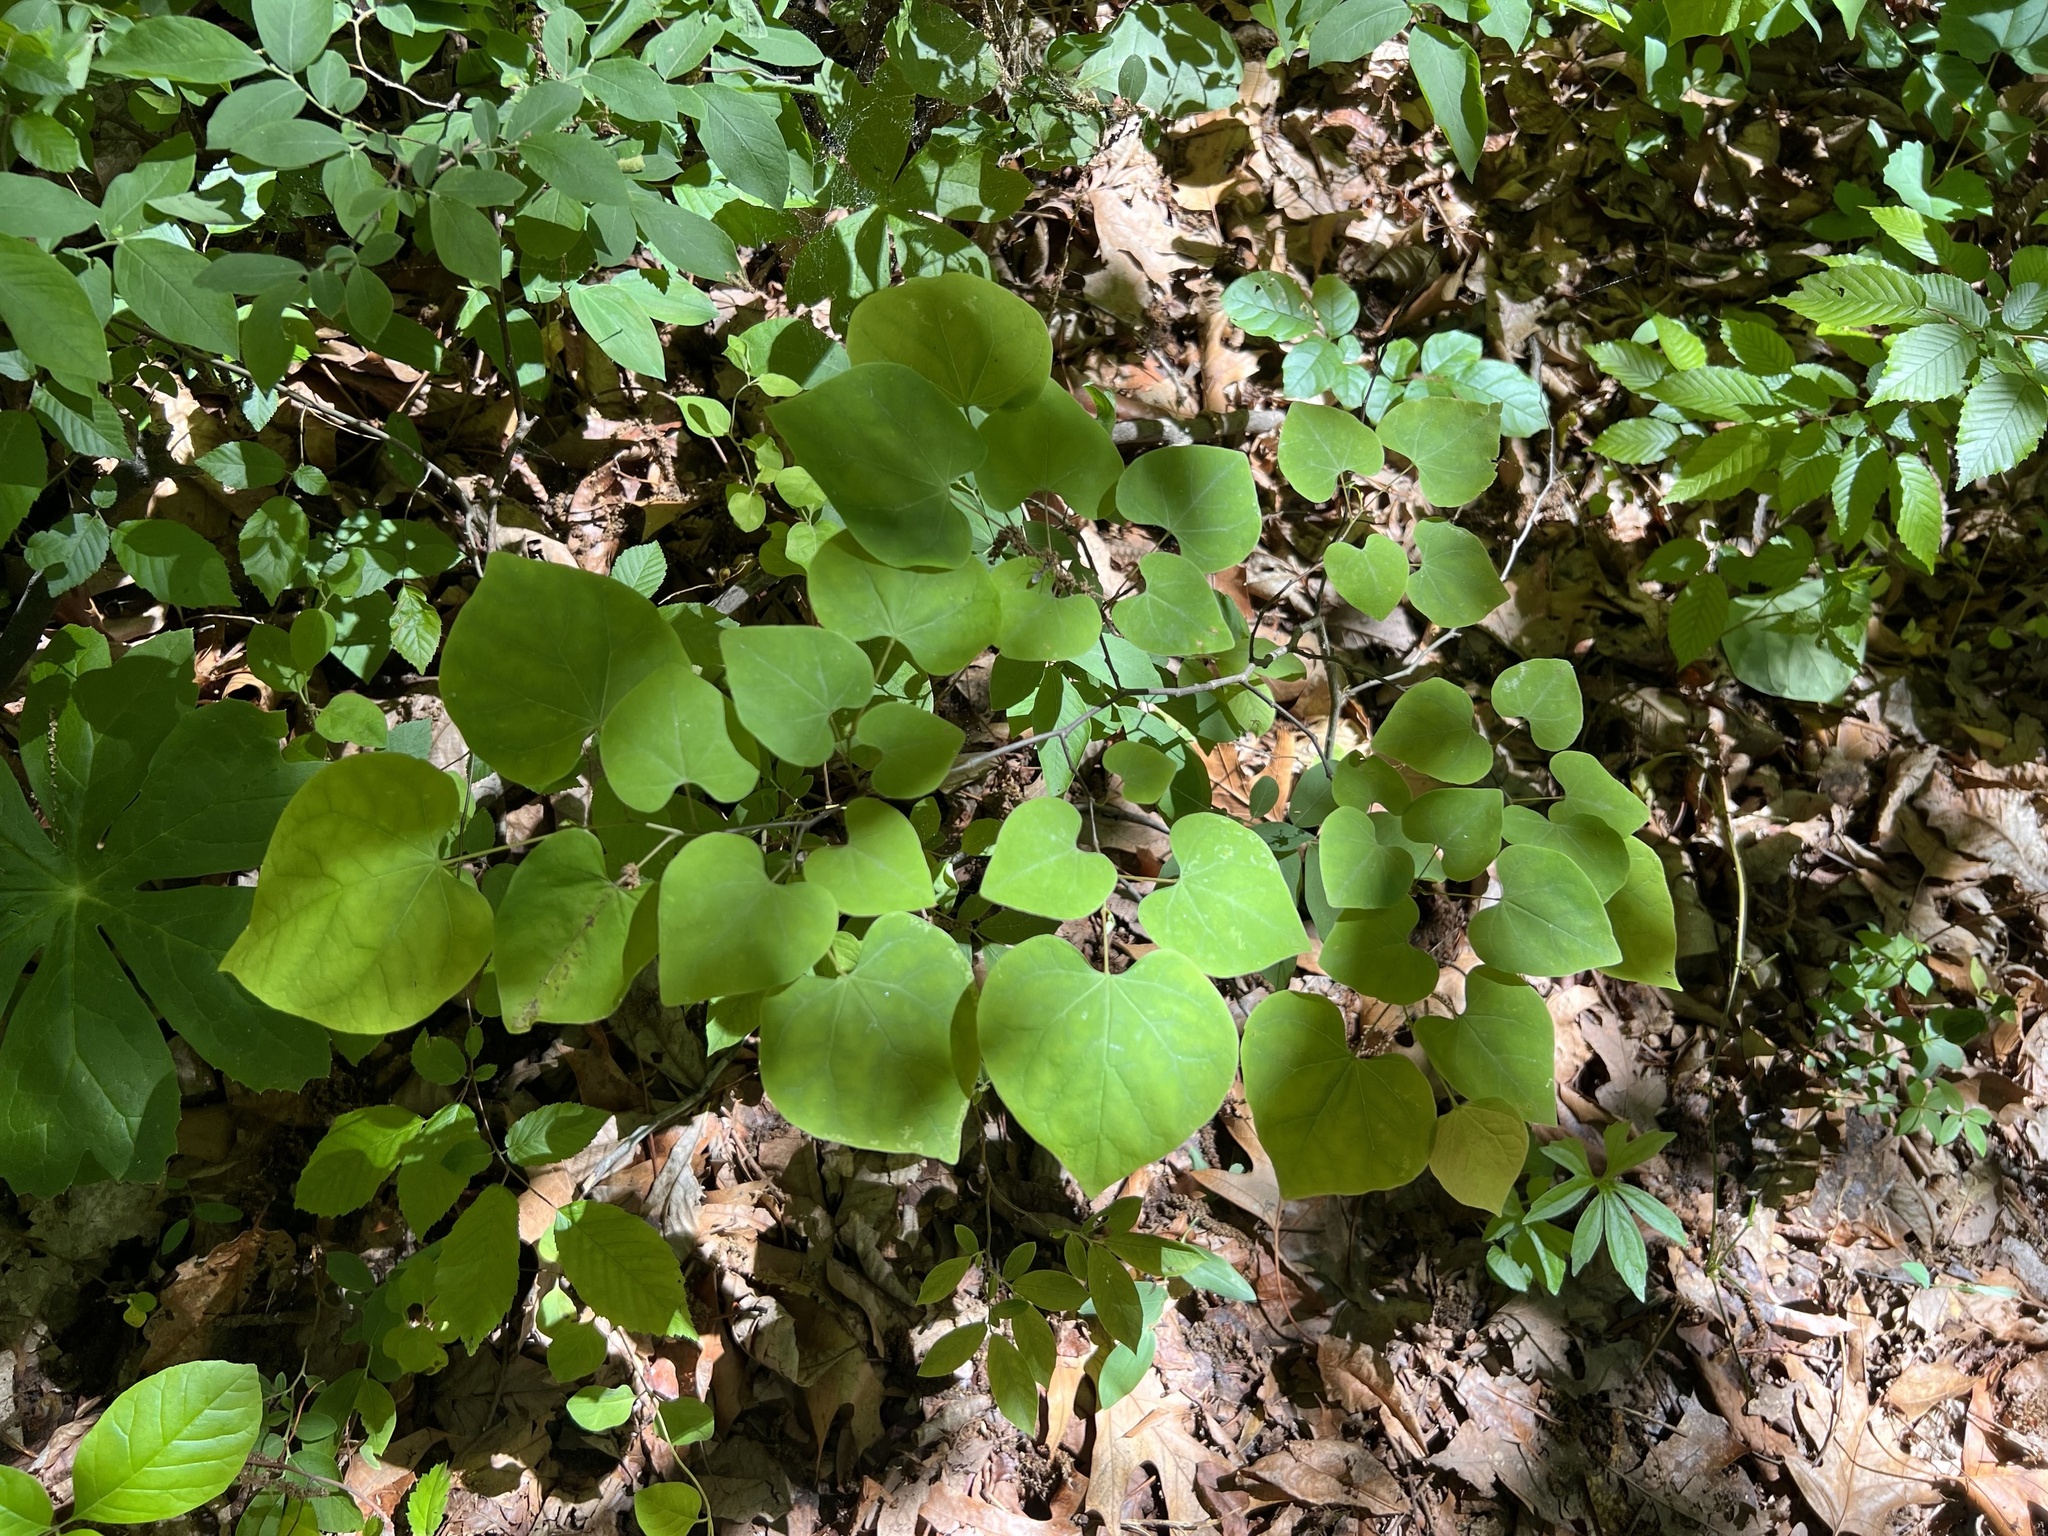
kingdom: Plantae
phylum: Tracheophyta
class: Magnoliopsida
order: Fabales
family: Fabaceae
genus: Cercis
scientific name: Cercis canadensis
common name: Eastern redbud
